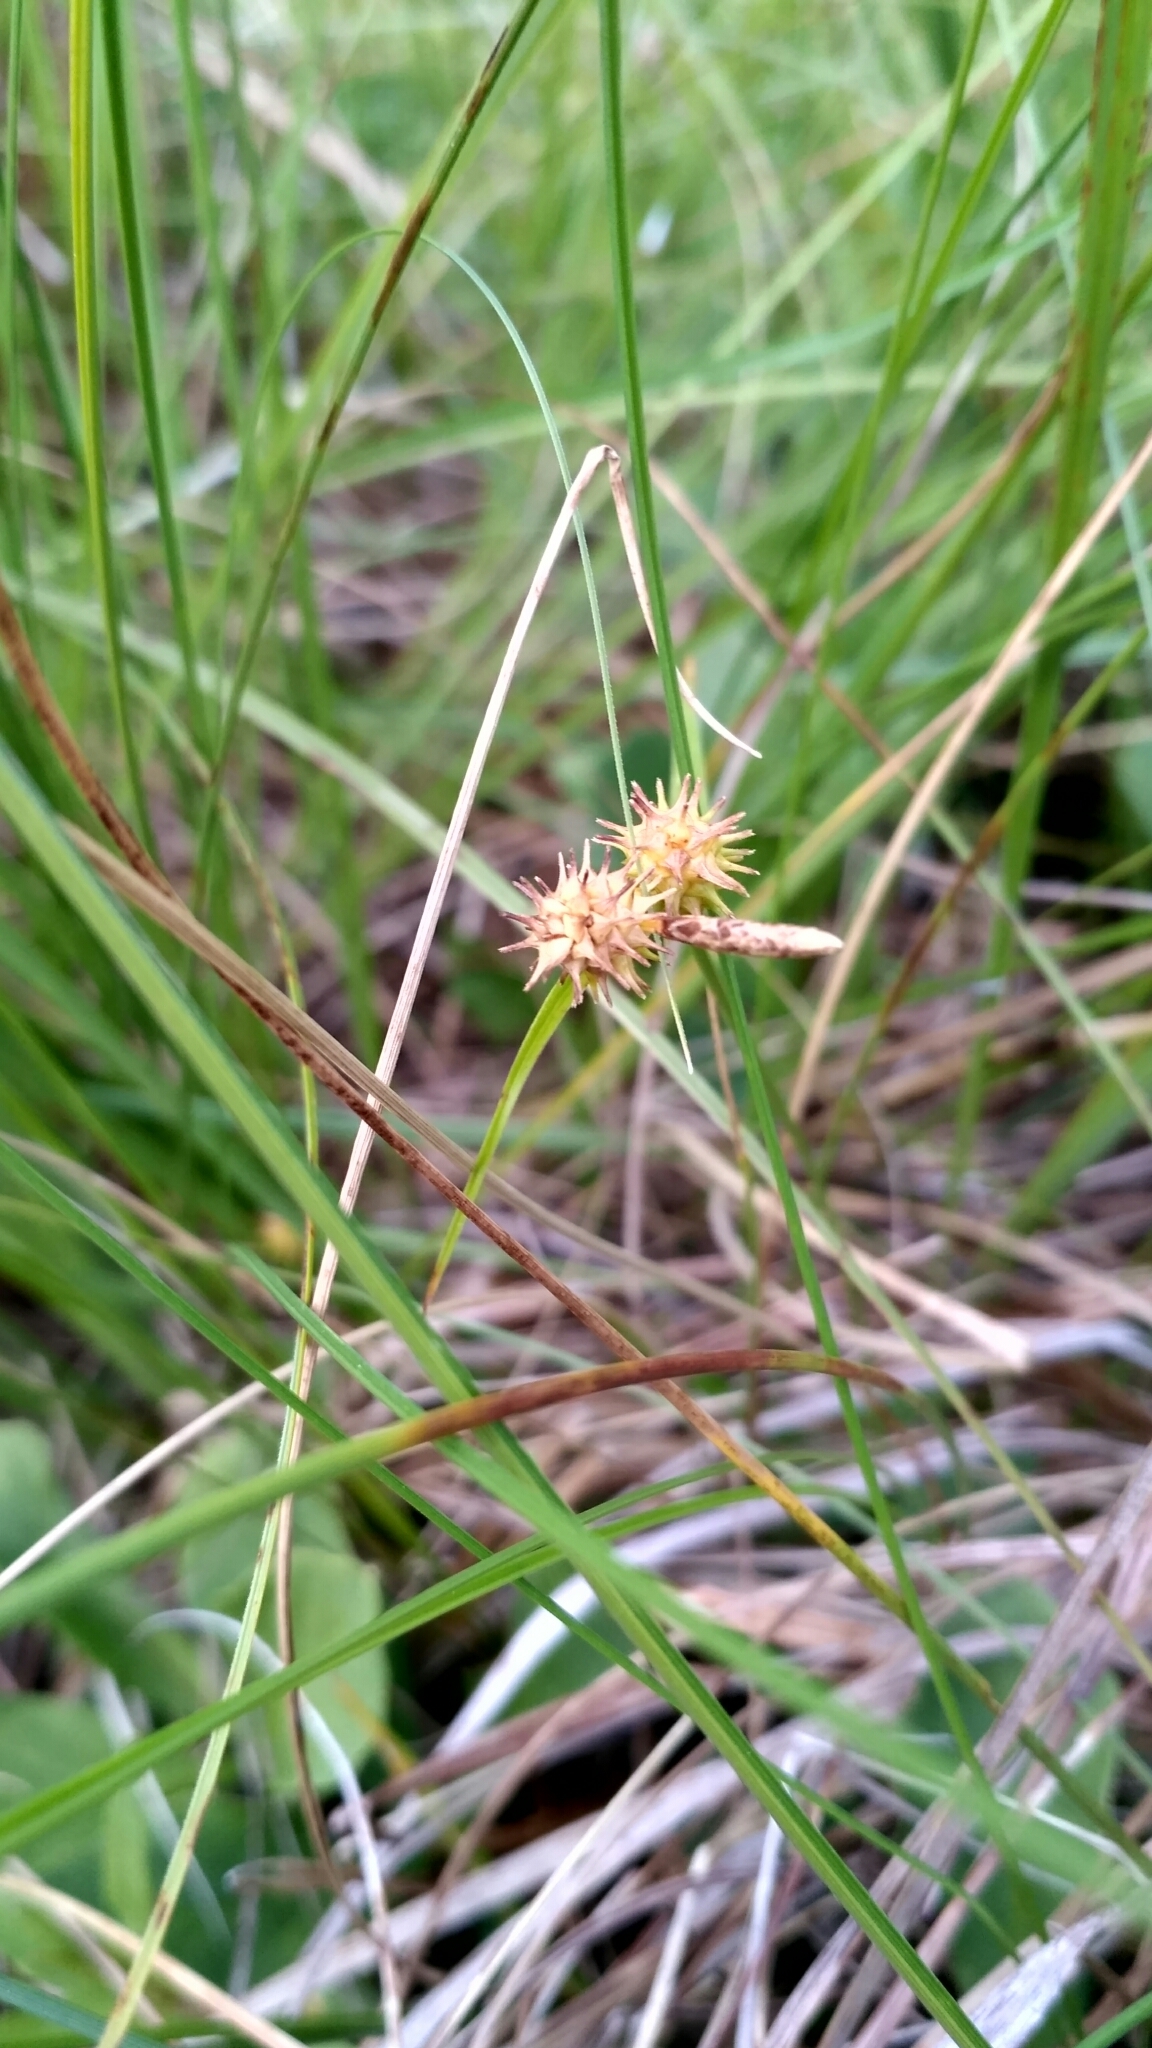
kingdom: Plantae
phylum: Tracheophyta
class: Liliopsida
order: Poales
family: Cyperaceae
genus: Carex
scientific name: Carex flava
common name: Large yellow-sedge
